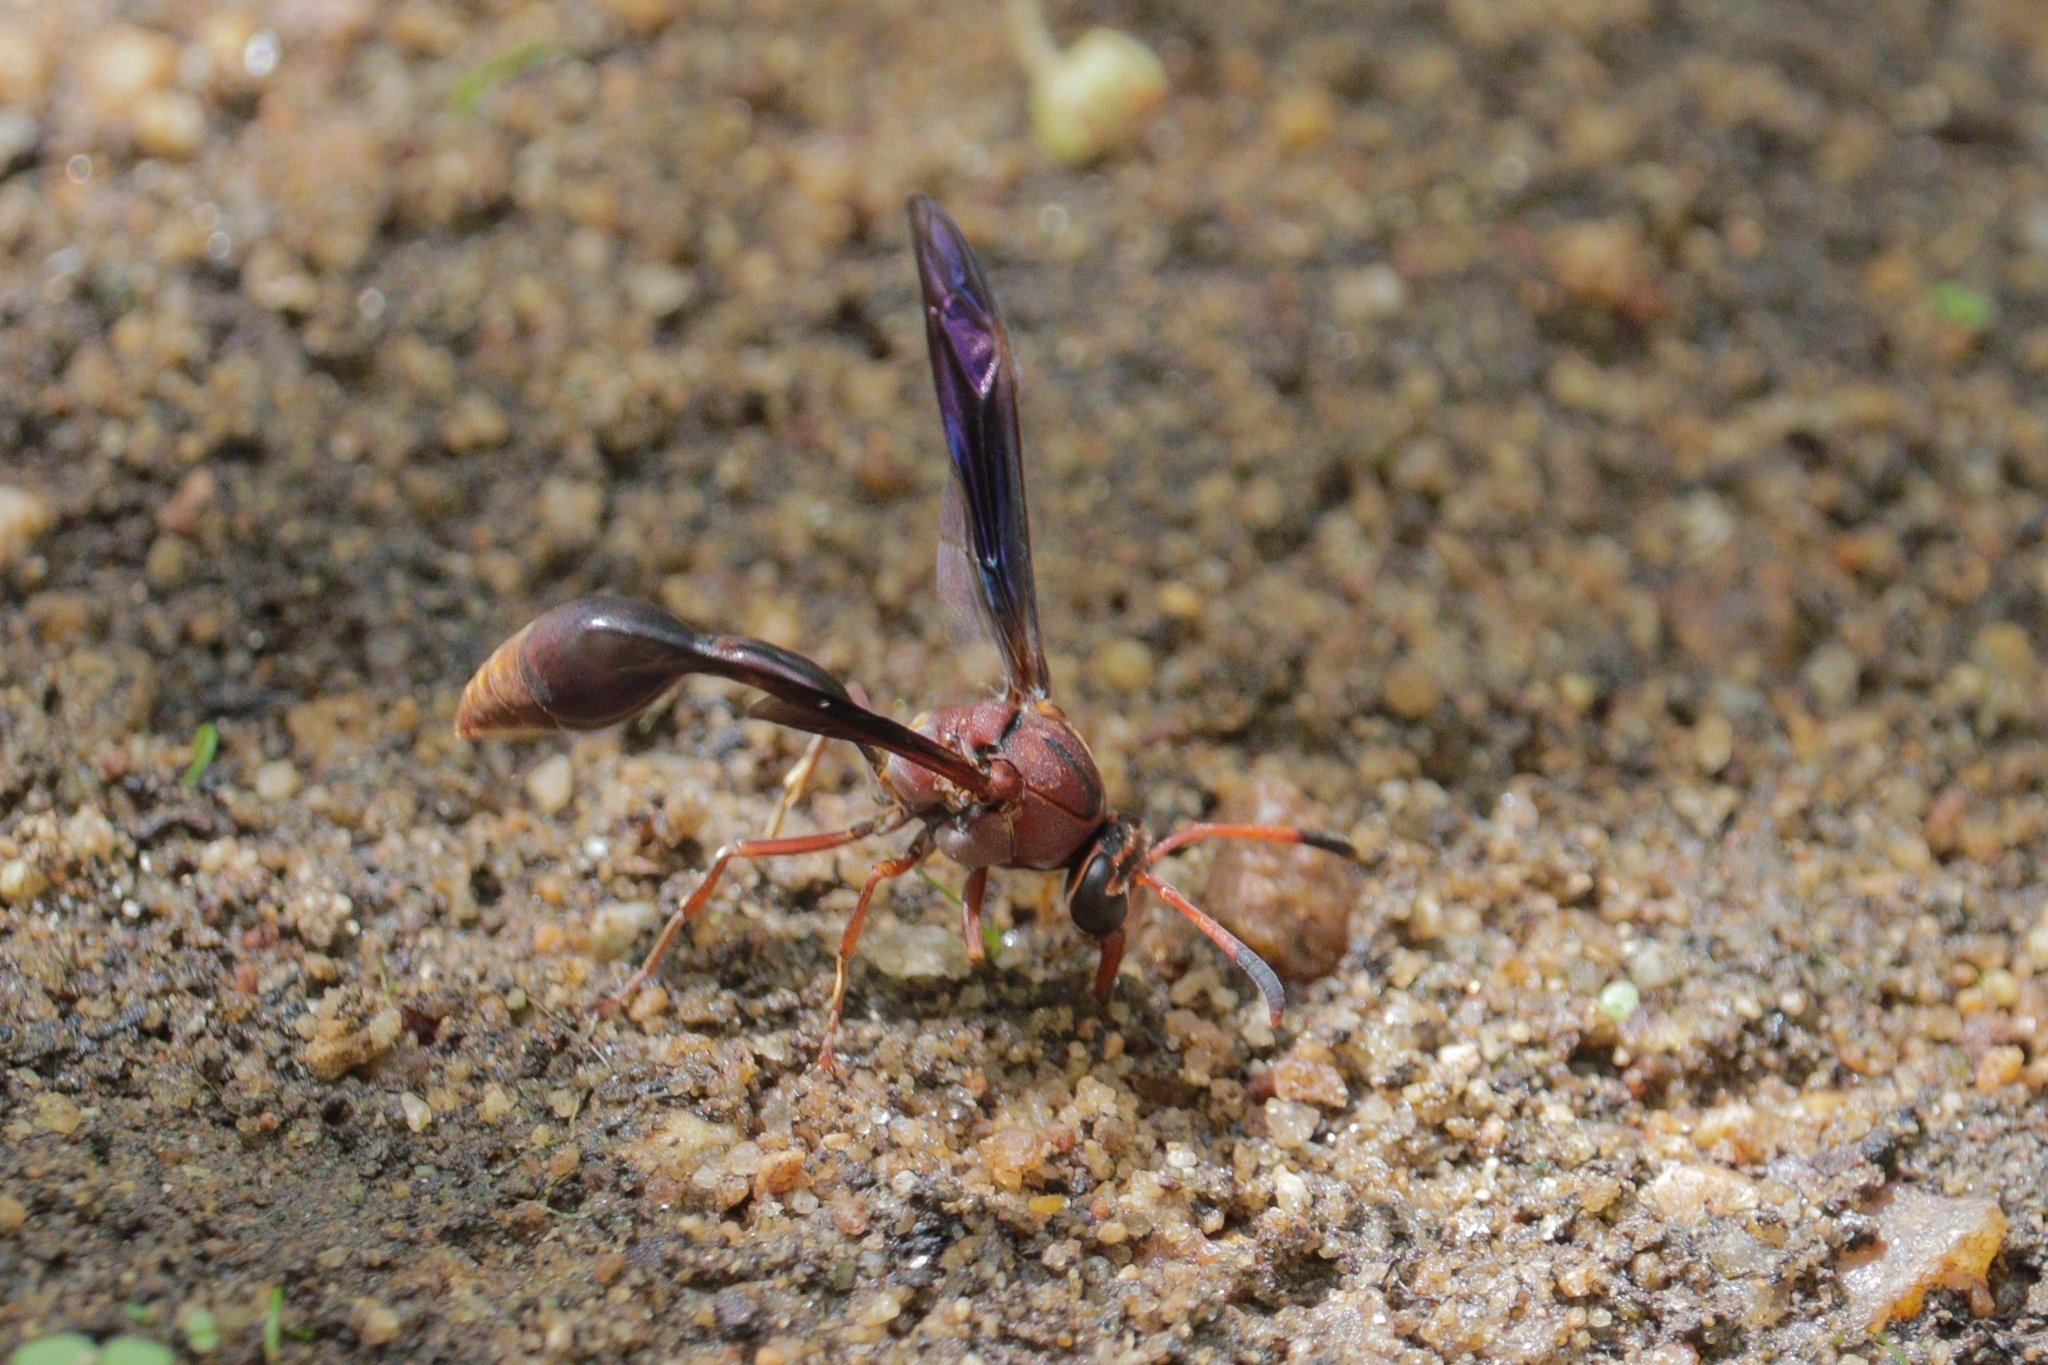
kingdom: Animalia
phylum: Arthropoda
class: Insecta
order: Hymenoptera
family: Eumenidae
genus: Zeta
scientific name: Zeta argillaceum
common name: Potter wasp
